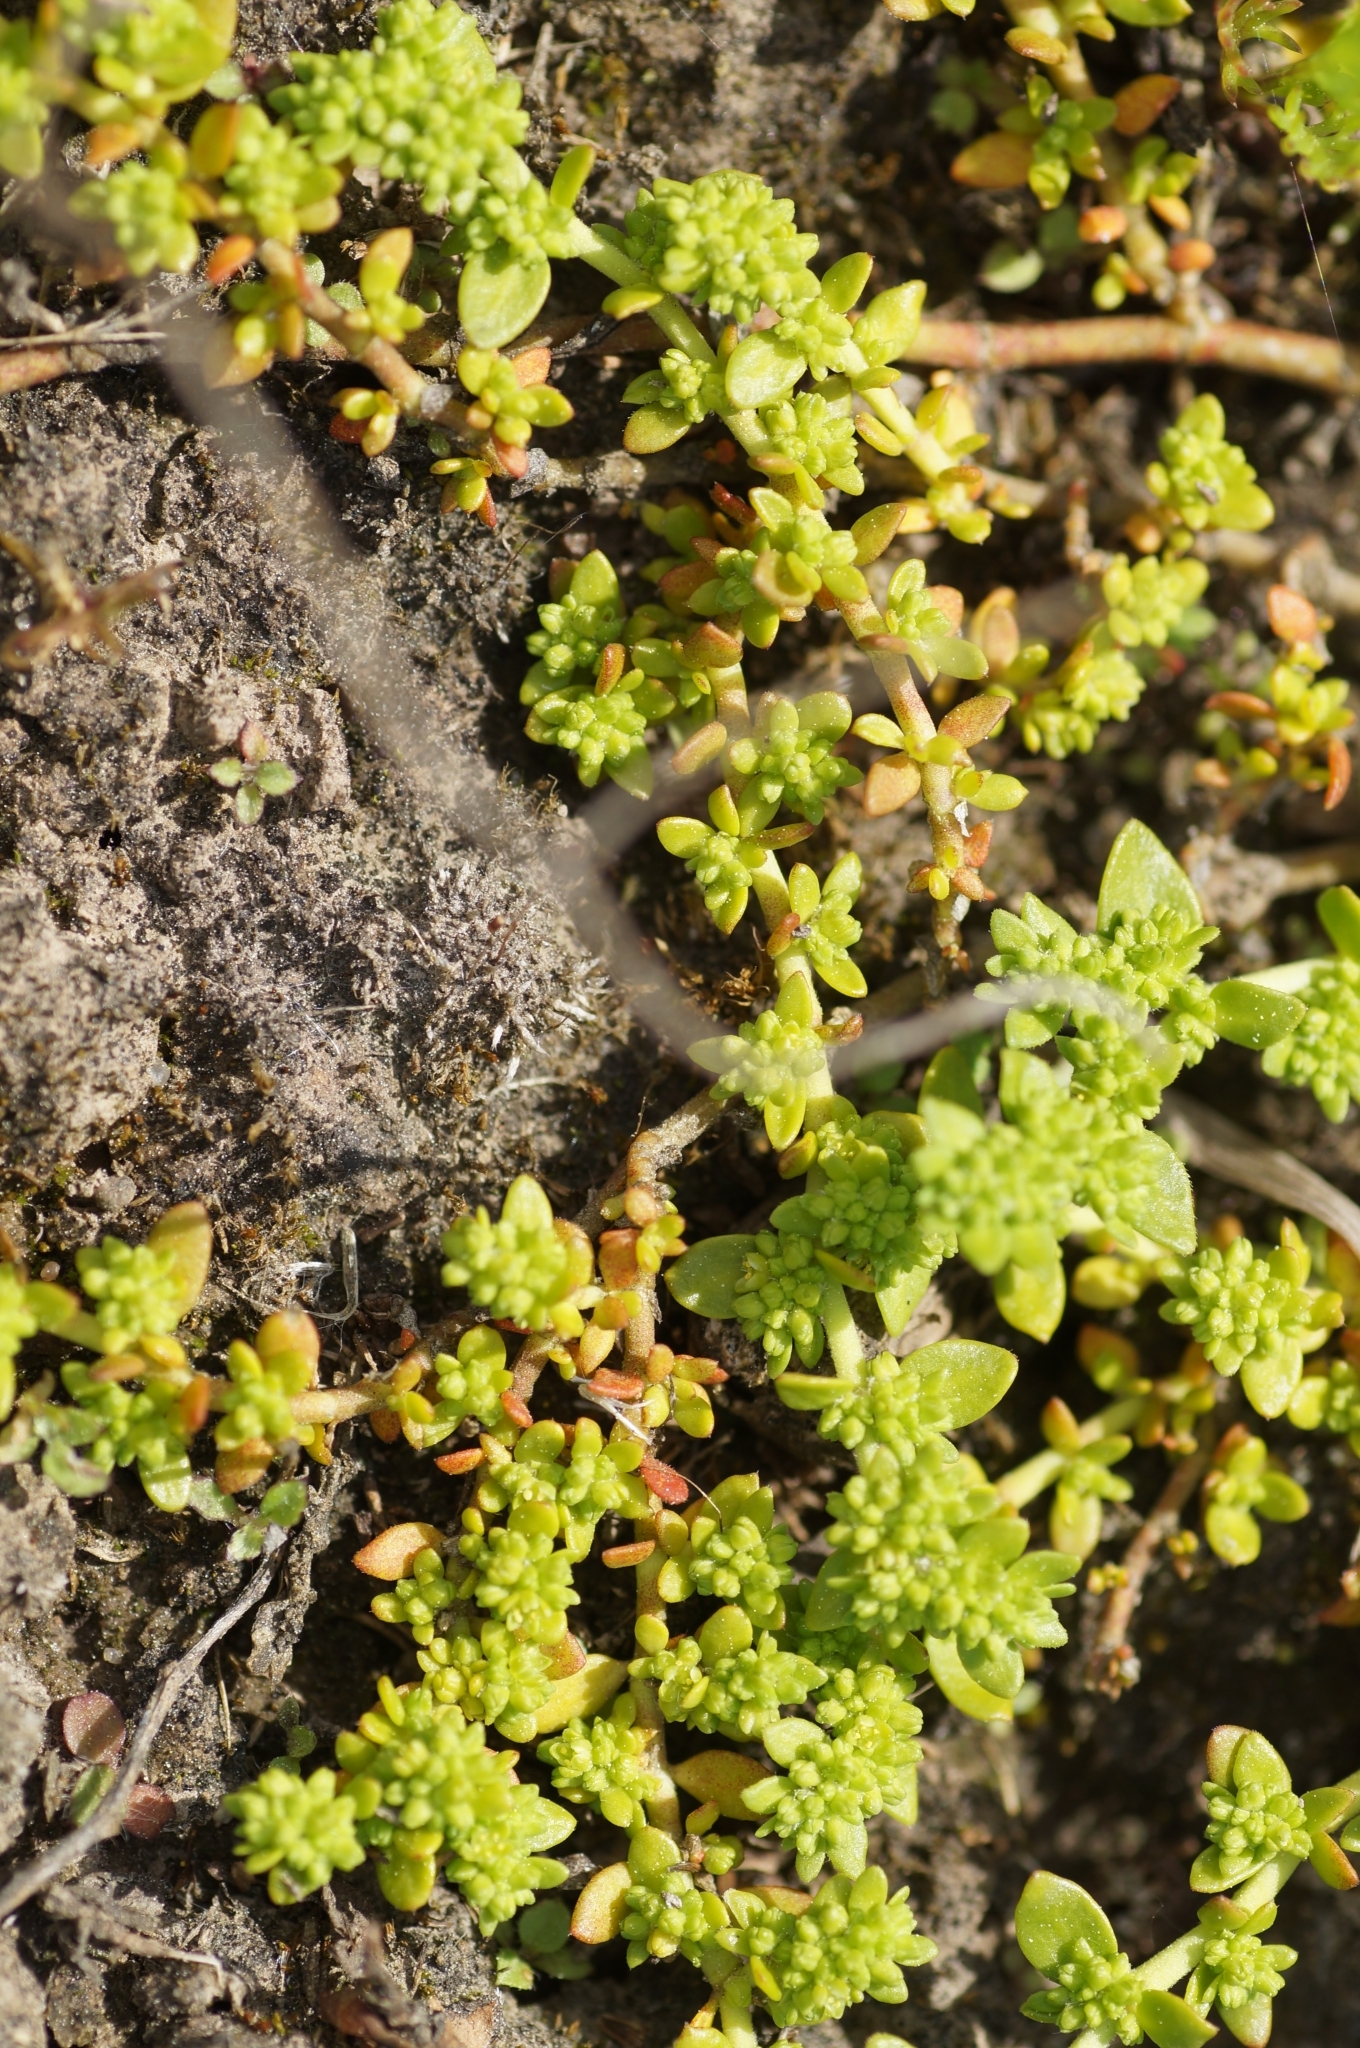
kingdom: Plantae
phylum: Tracheophyta
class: Magnoliopsida
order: Caryophyllales
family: Caryophyllaceae
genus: Herniaria
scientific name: Herniaria glabra
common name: Smooth rupturewort
